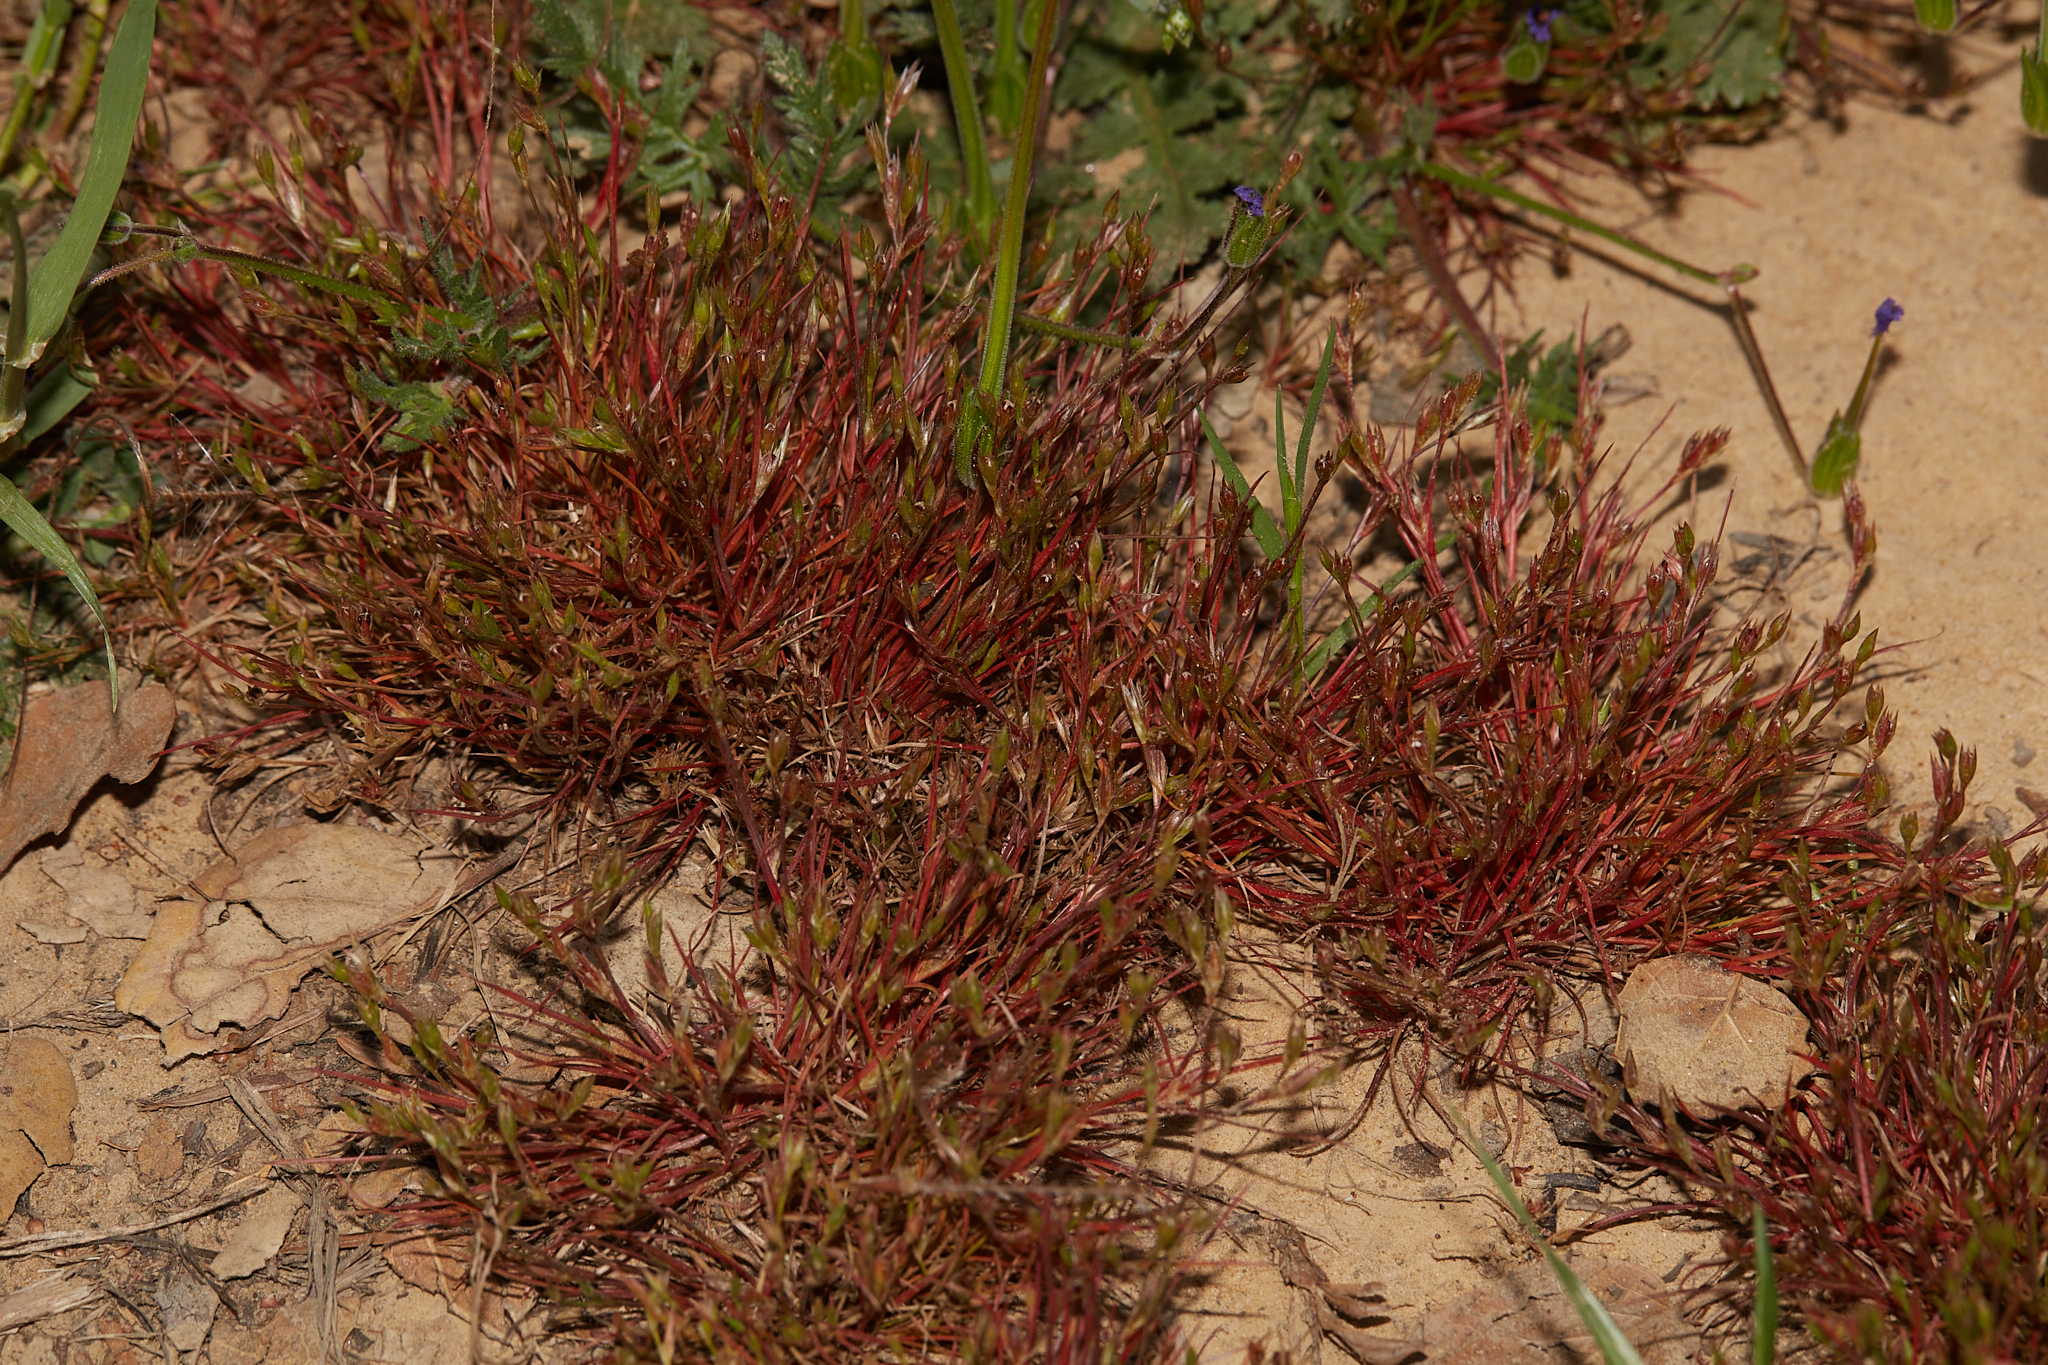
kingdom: Plantae
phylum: Tracheophyta
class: Liliopsida
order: Poales
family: Juncaceae
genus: Juncus
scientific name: Juncus bufonius
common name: Toad rush
